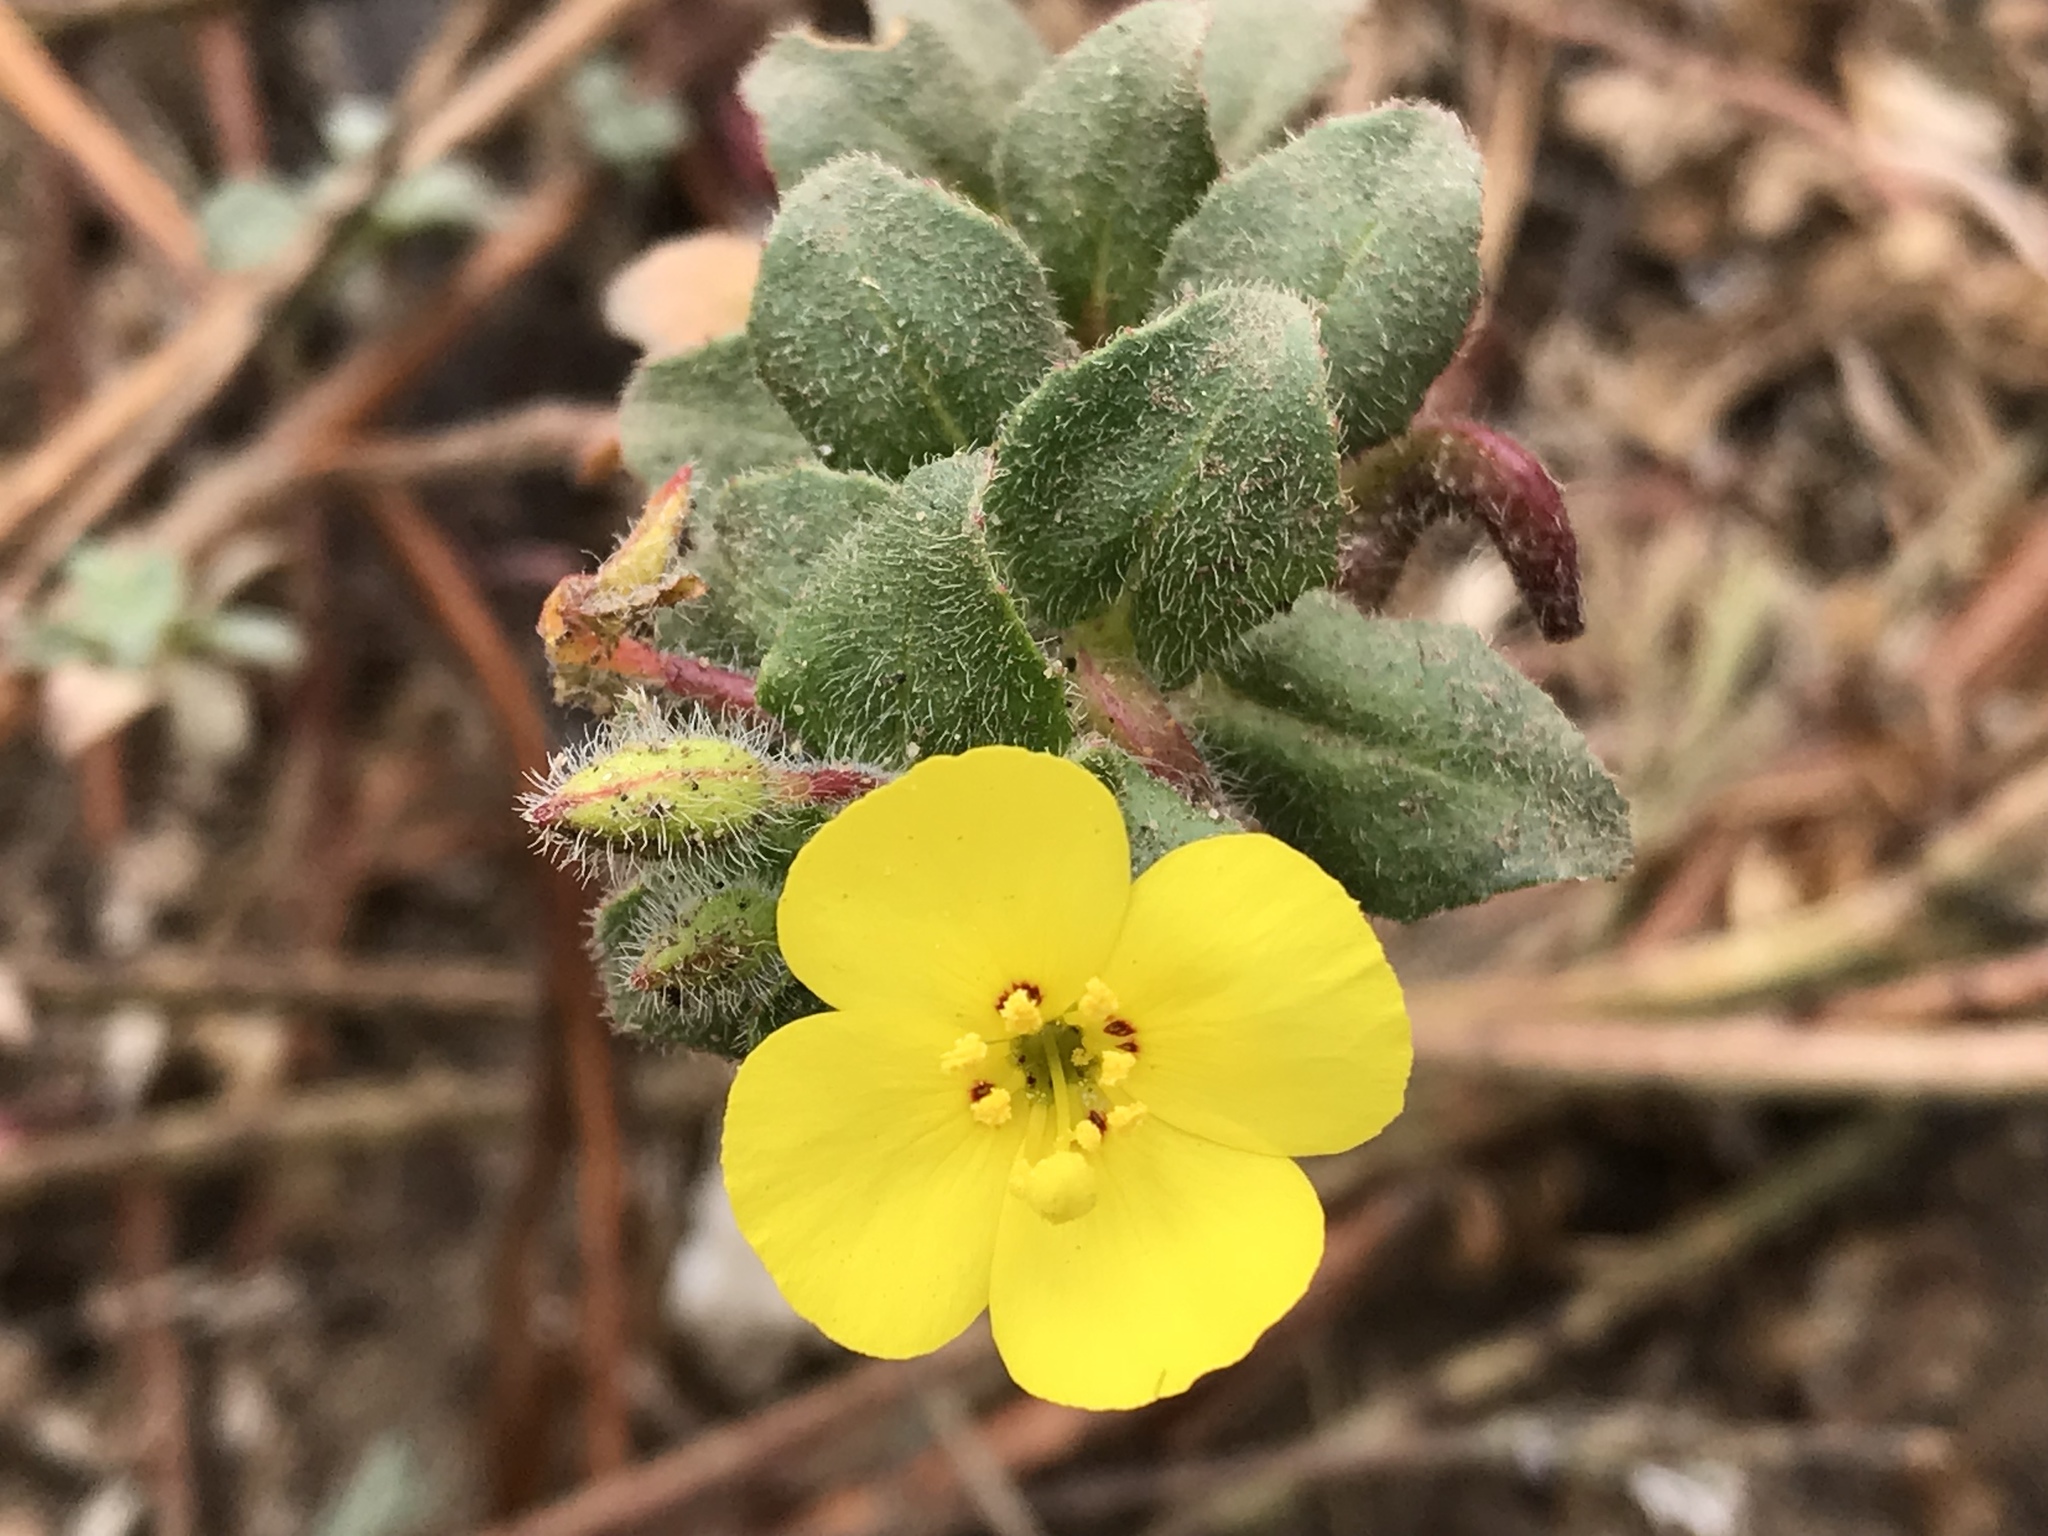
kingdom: Plantae
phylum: Tracheophyta
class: Magnoliopsida
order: Myrtales
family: Onagraceae
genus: Camissoniopsis
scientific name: Camissoniopsis cheiranthifolia
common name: Beach suncup
